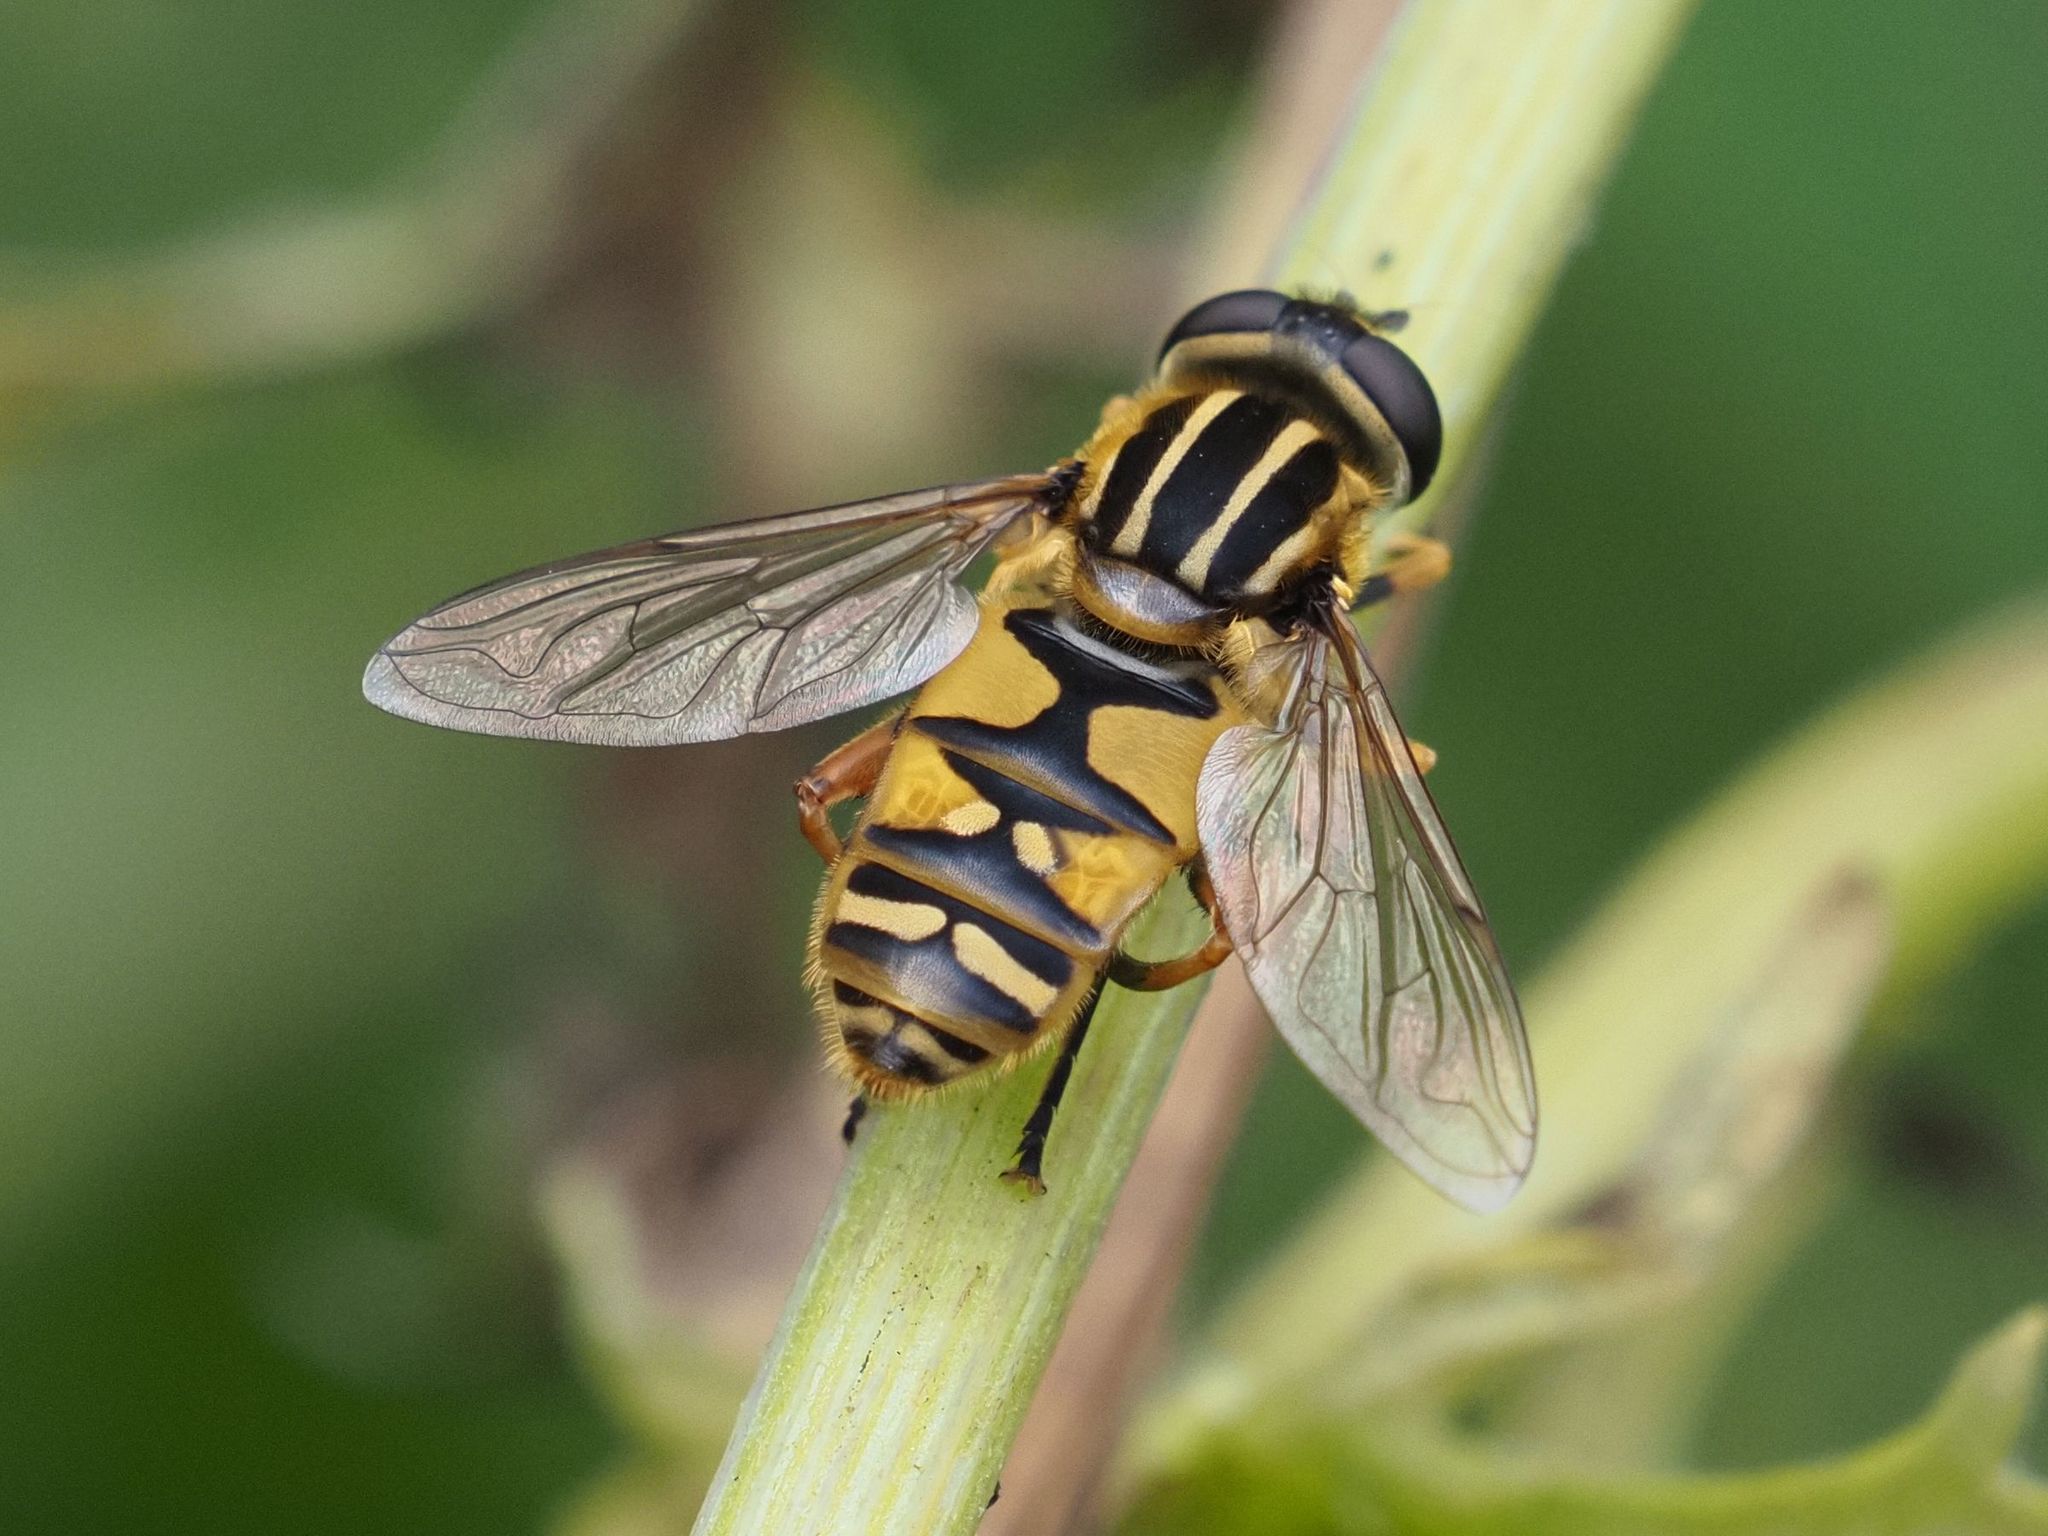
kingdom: Animalia
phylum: Arthropoda
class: Insecta
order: Diptera
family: Syrphidae
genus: Helophilus
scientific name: Helophilus pendulus
